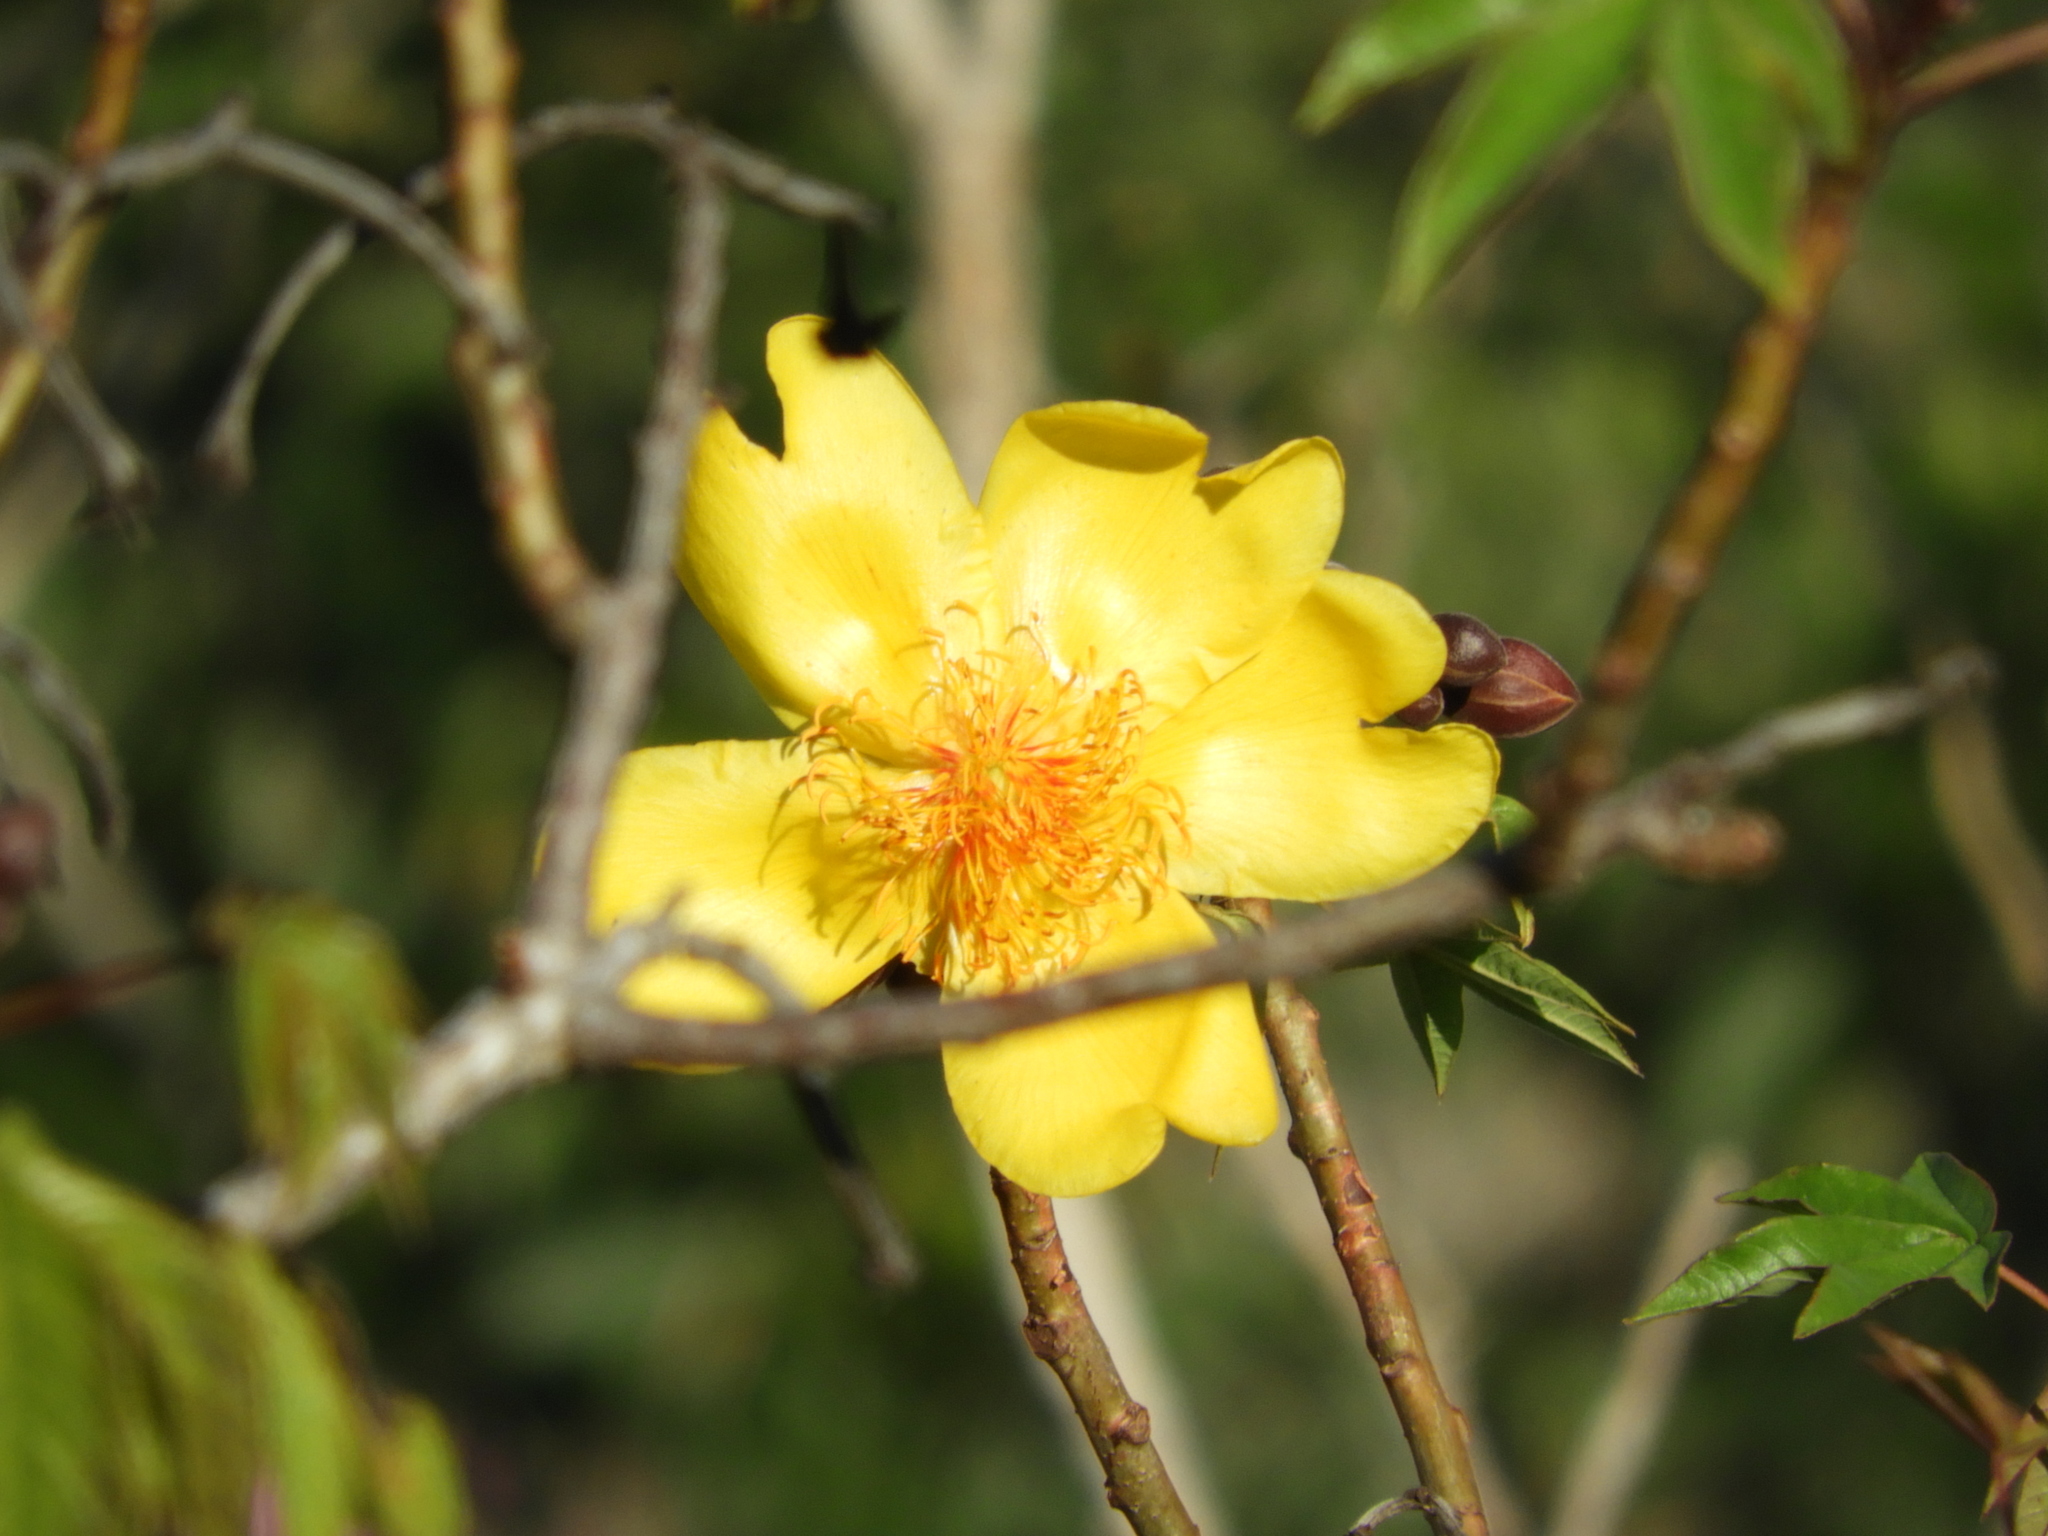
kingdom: Plantae
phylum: Tracheophyta
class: Magnoliopsida
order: Malvales
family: Cochlospermaceae
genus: Cochlospermum
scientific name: Cochlospermum vitifolium
